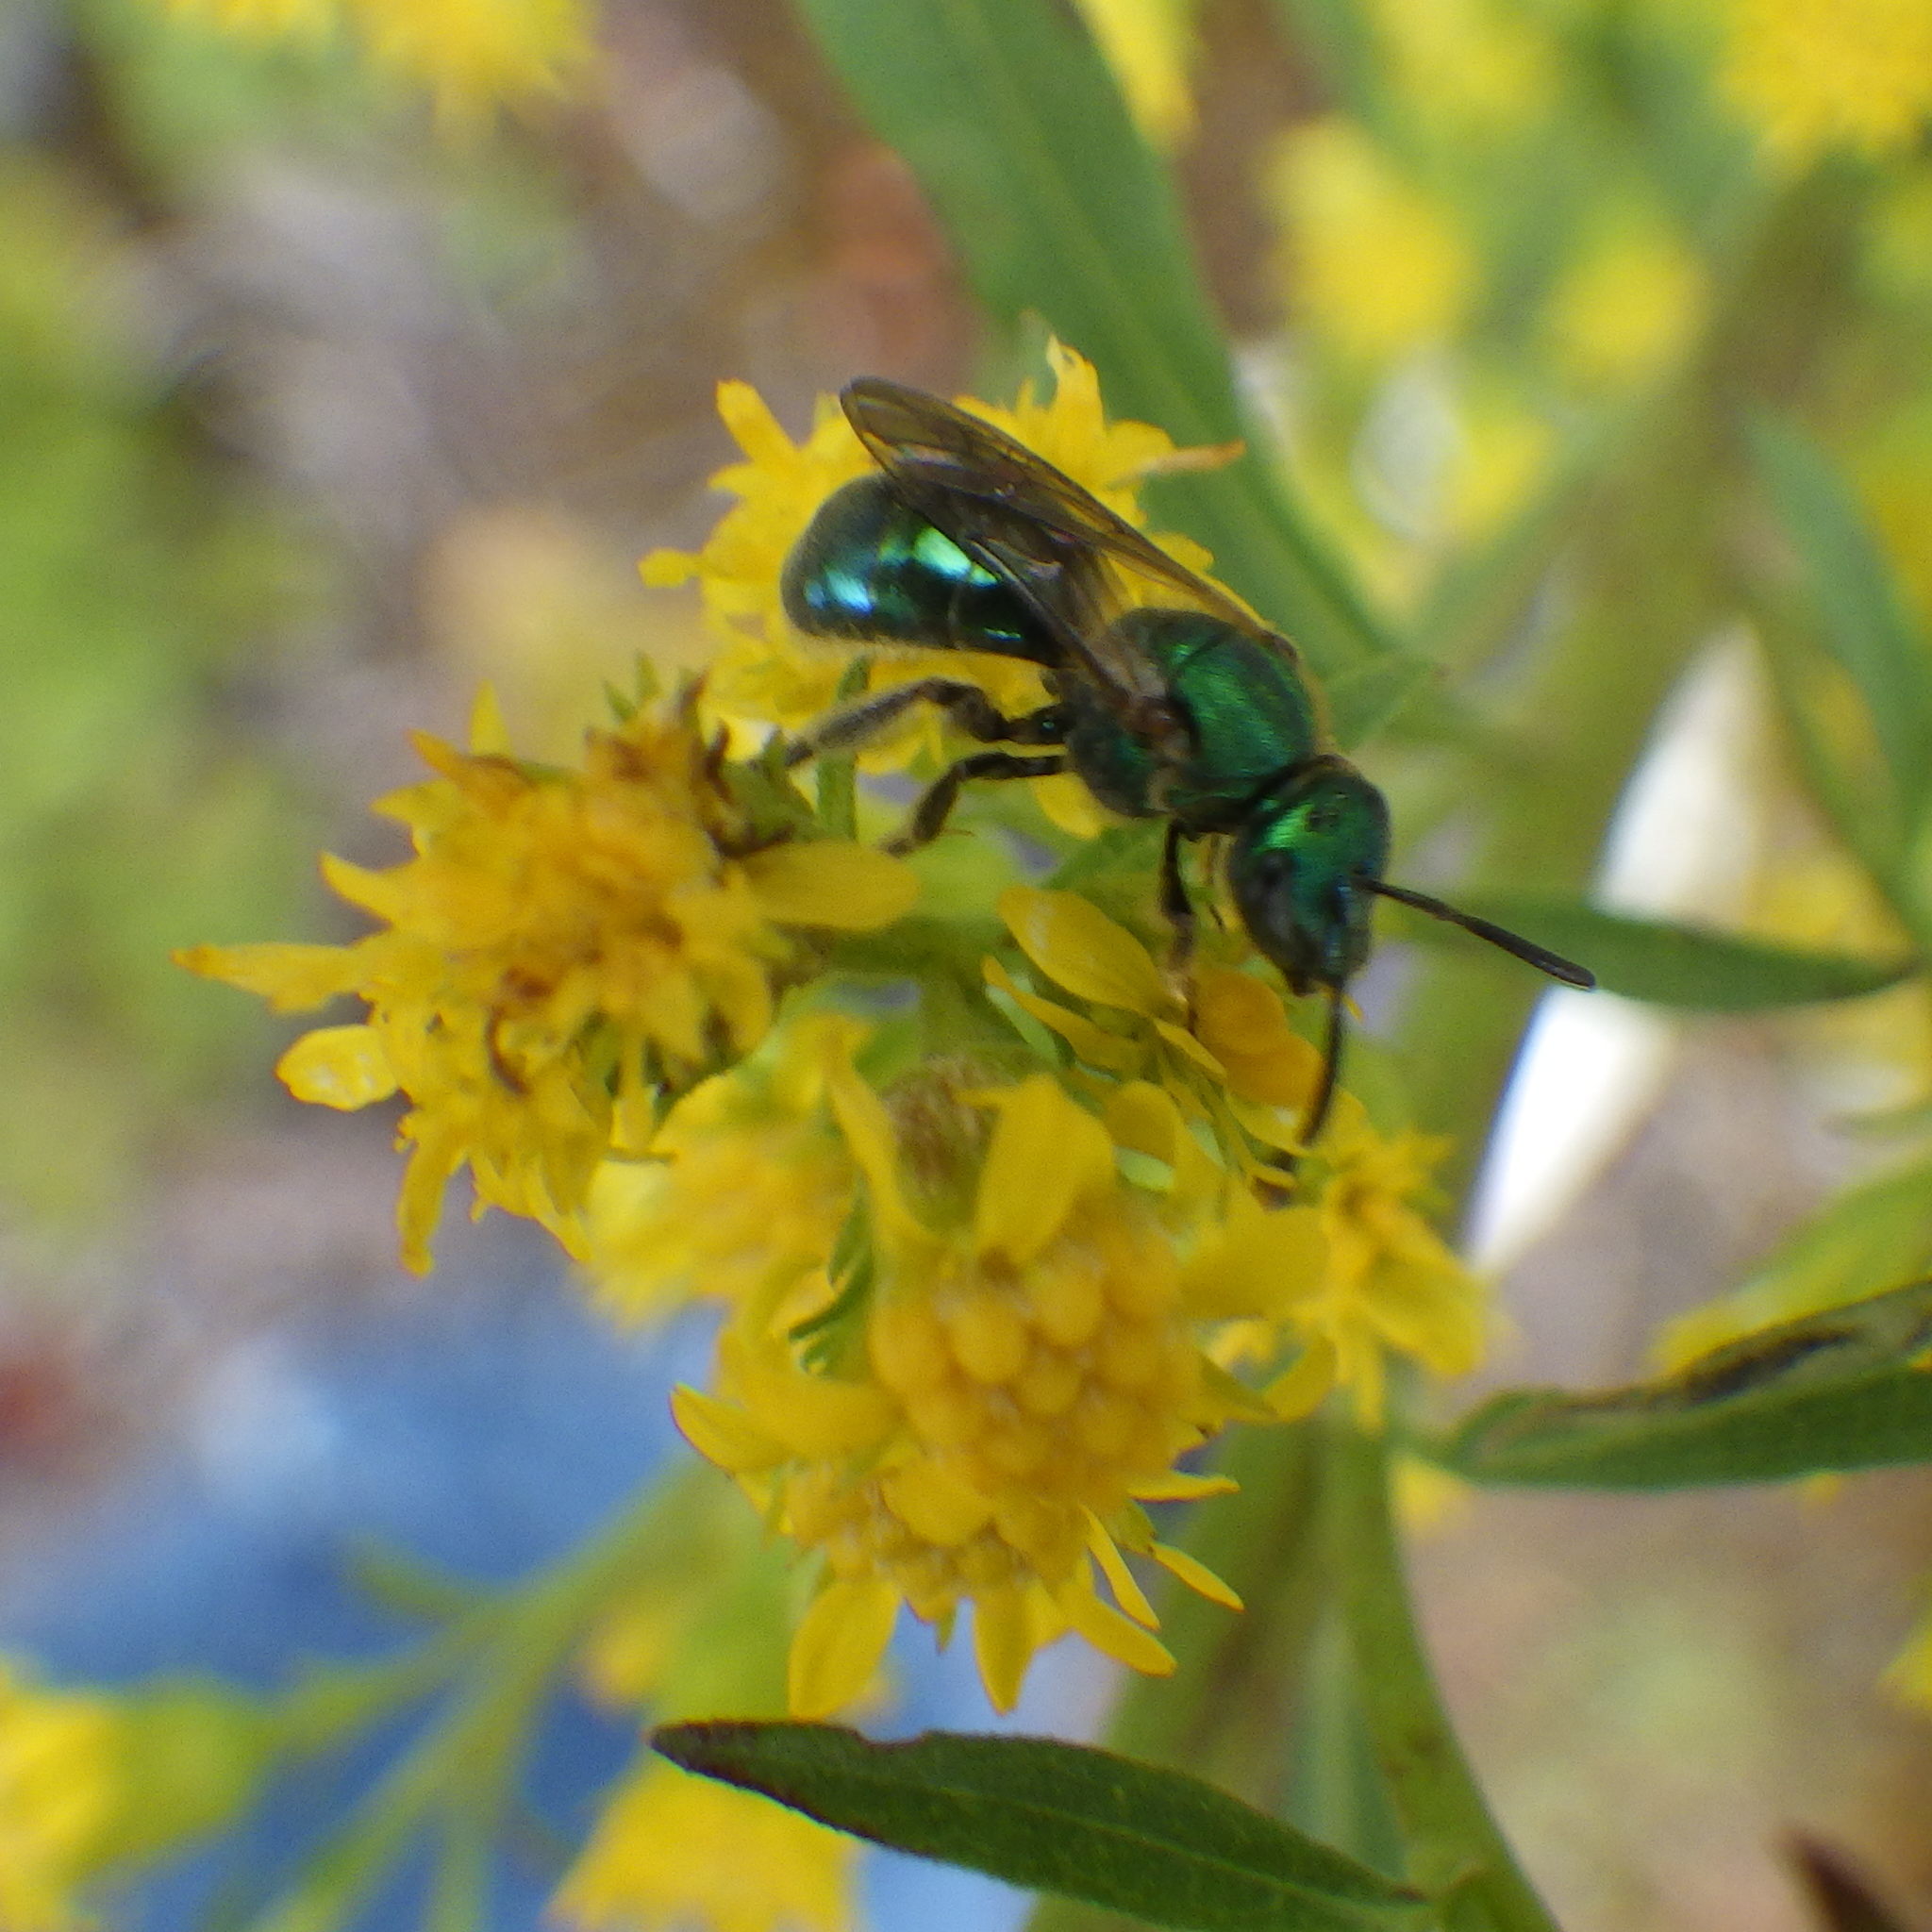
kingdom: Animalia
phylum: Arthropoda
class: Insecta
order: Hymenoptera
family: Halictidae
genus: Augochlorella
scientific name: Augochlorella aurata
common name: Golden sweat bee
